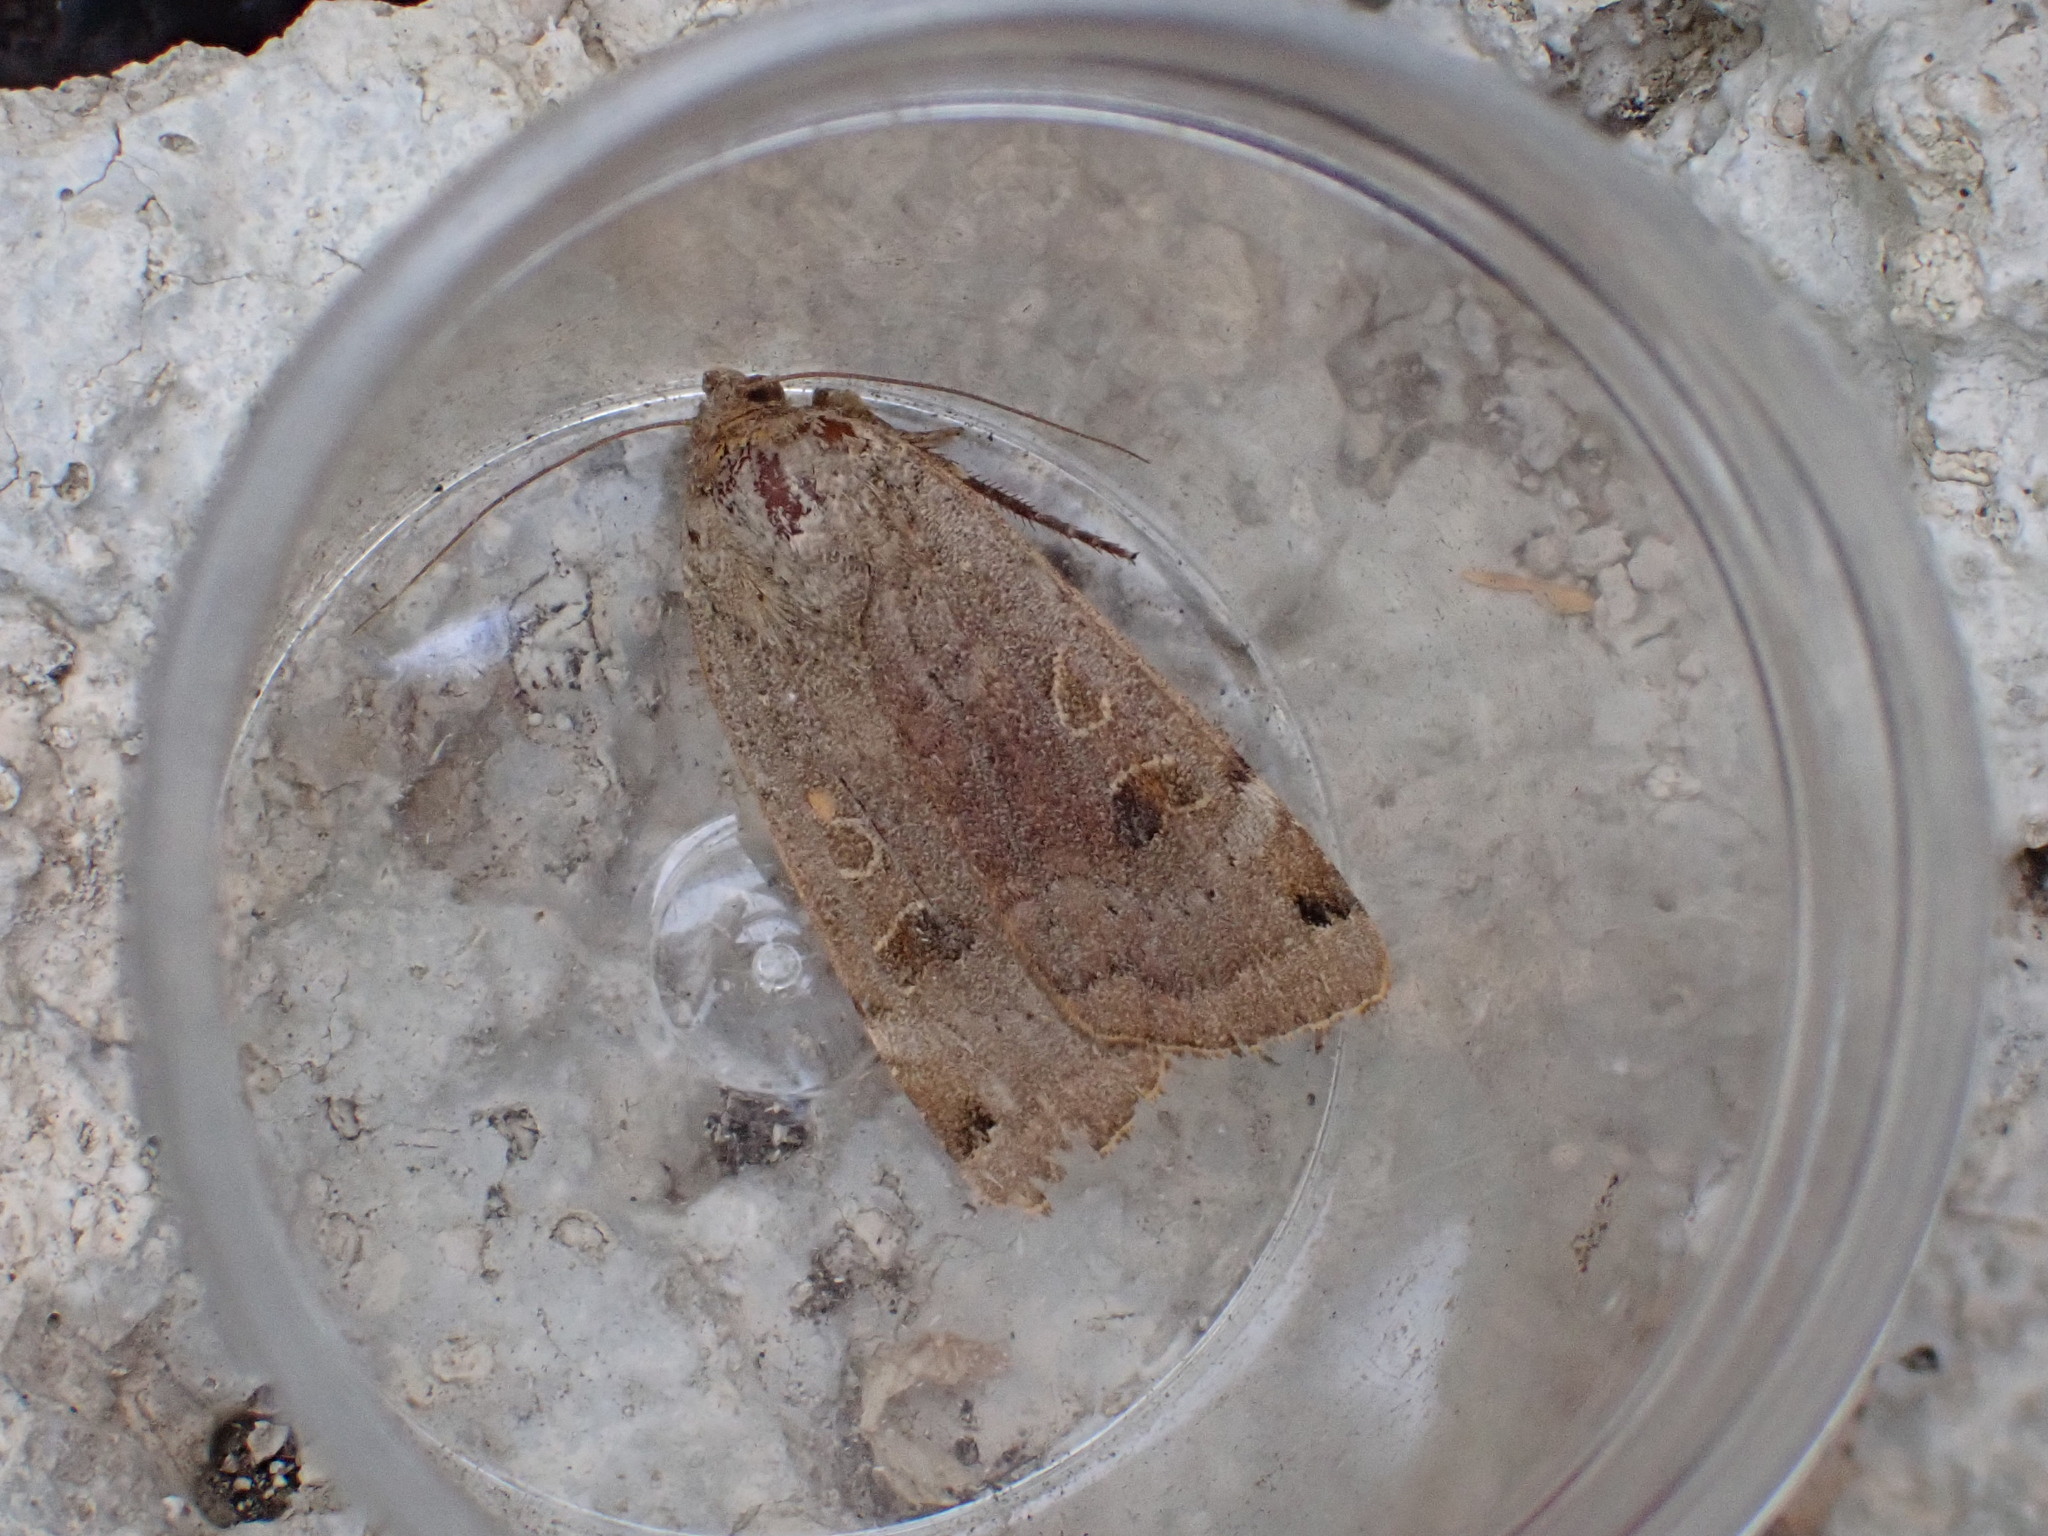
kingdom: Animalia
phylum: Arthropoda
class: Insecta
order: Lepidoptera
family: Noctuidae
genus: Noctua
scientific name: Noctua noacki
